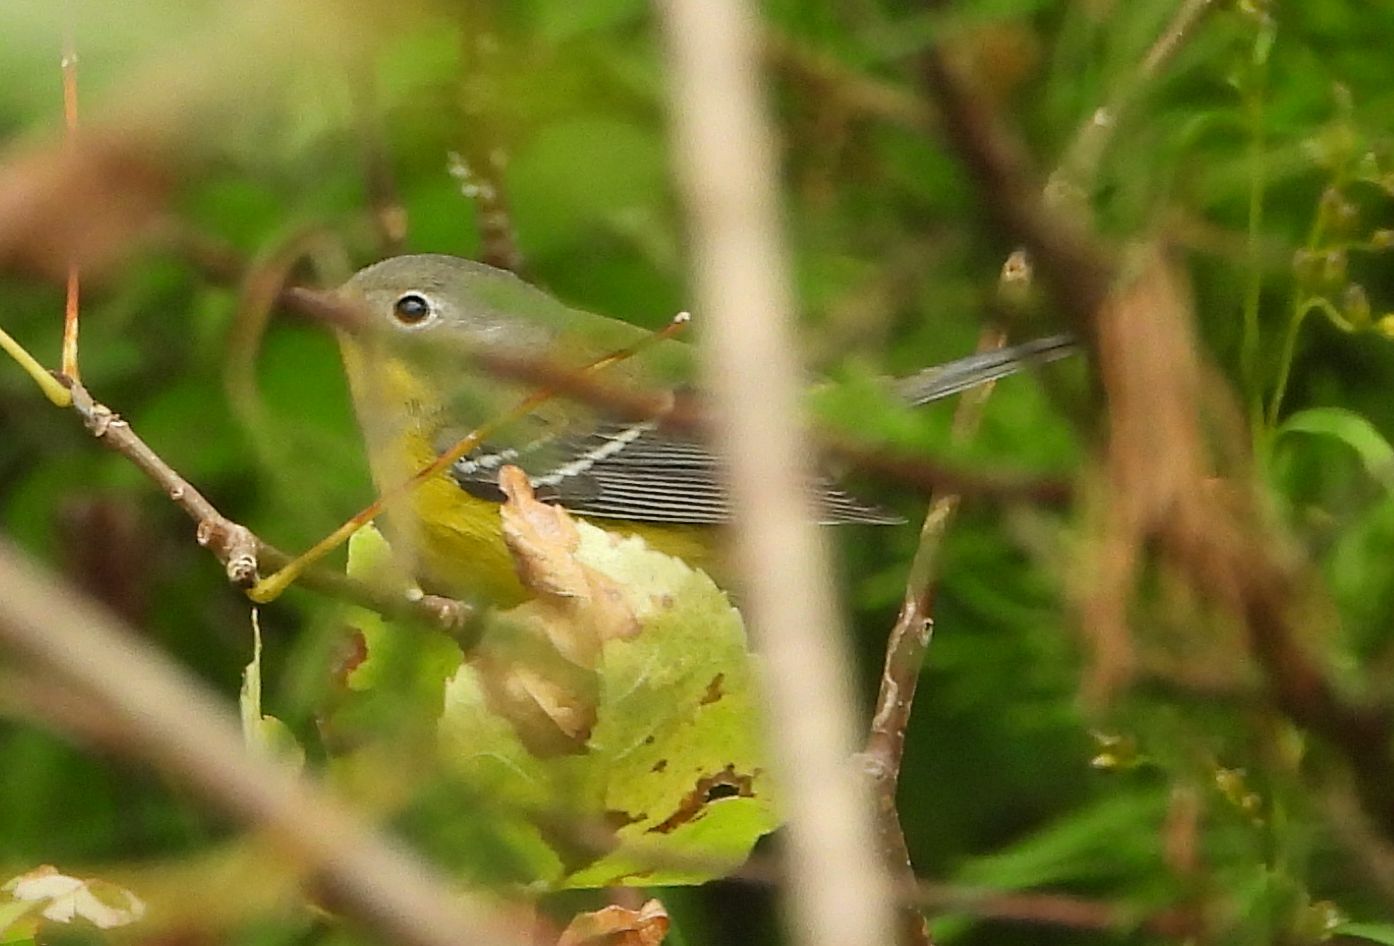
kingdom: Animalia
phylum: Chordata
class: Aves
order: Passeriformes
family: Parulidae
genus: Setophaga
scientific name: Setophaga magnolia
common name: Magnolia warbler
